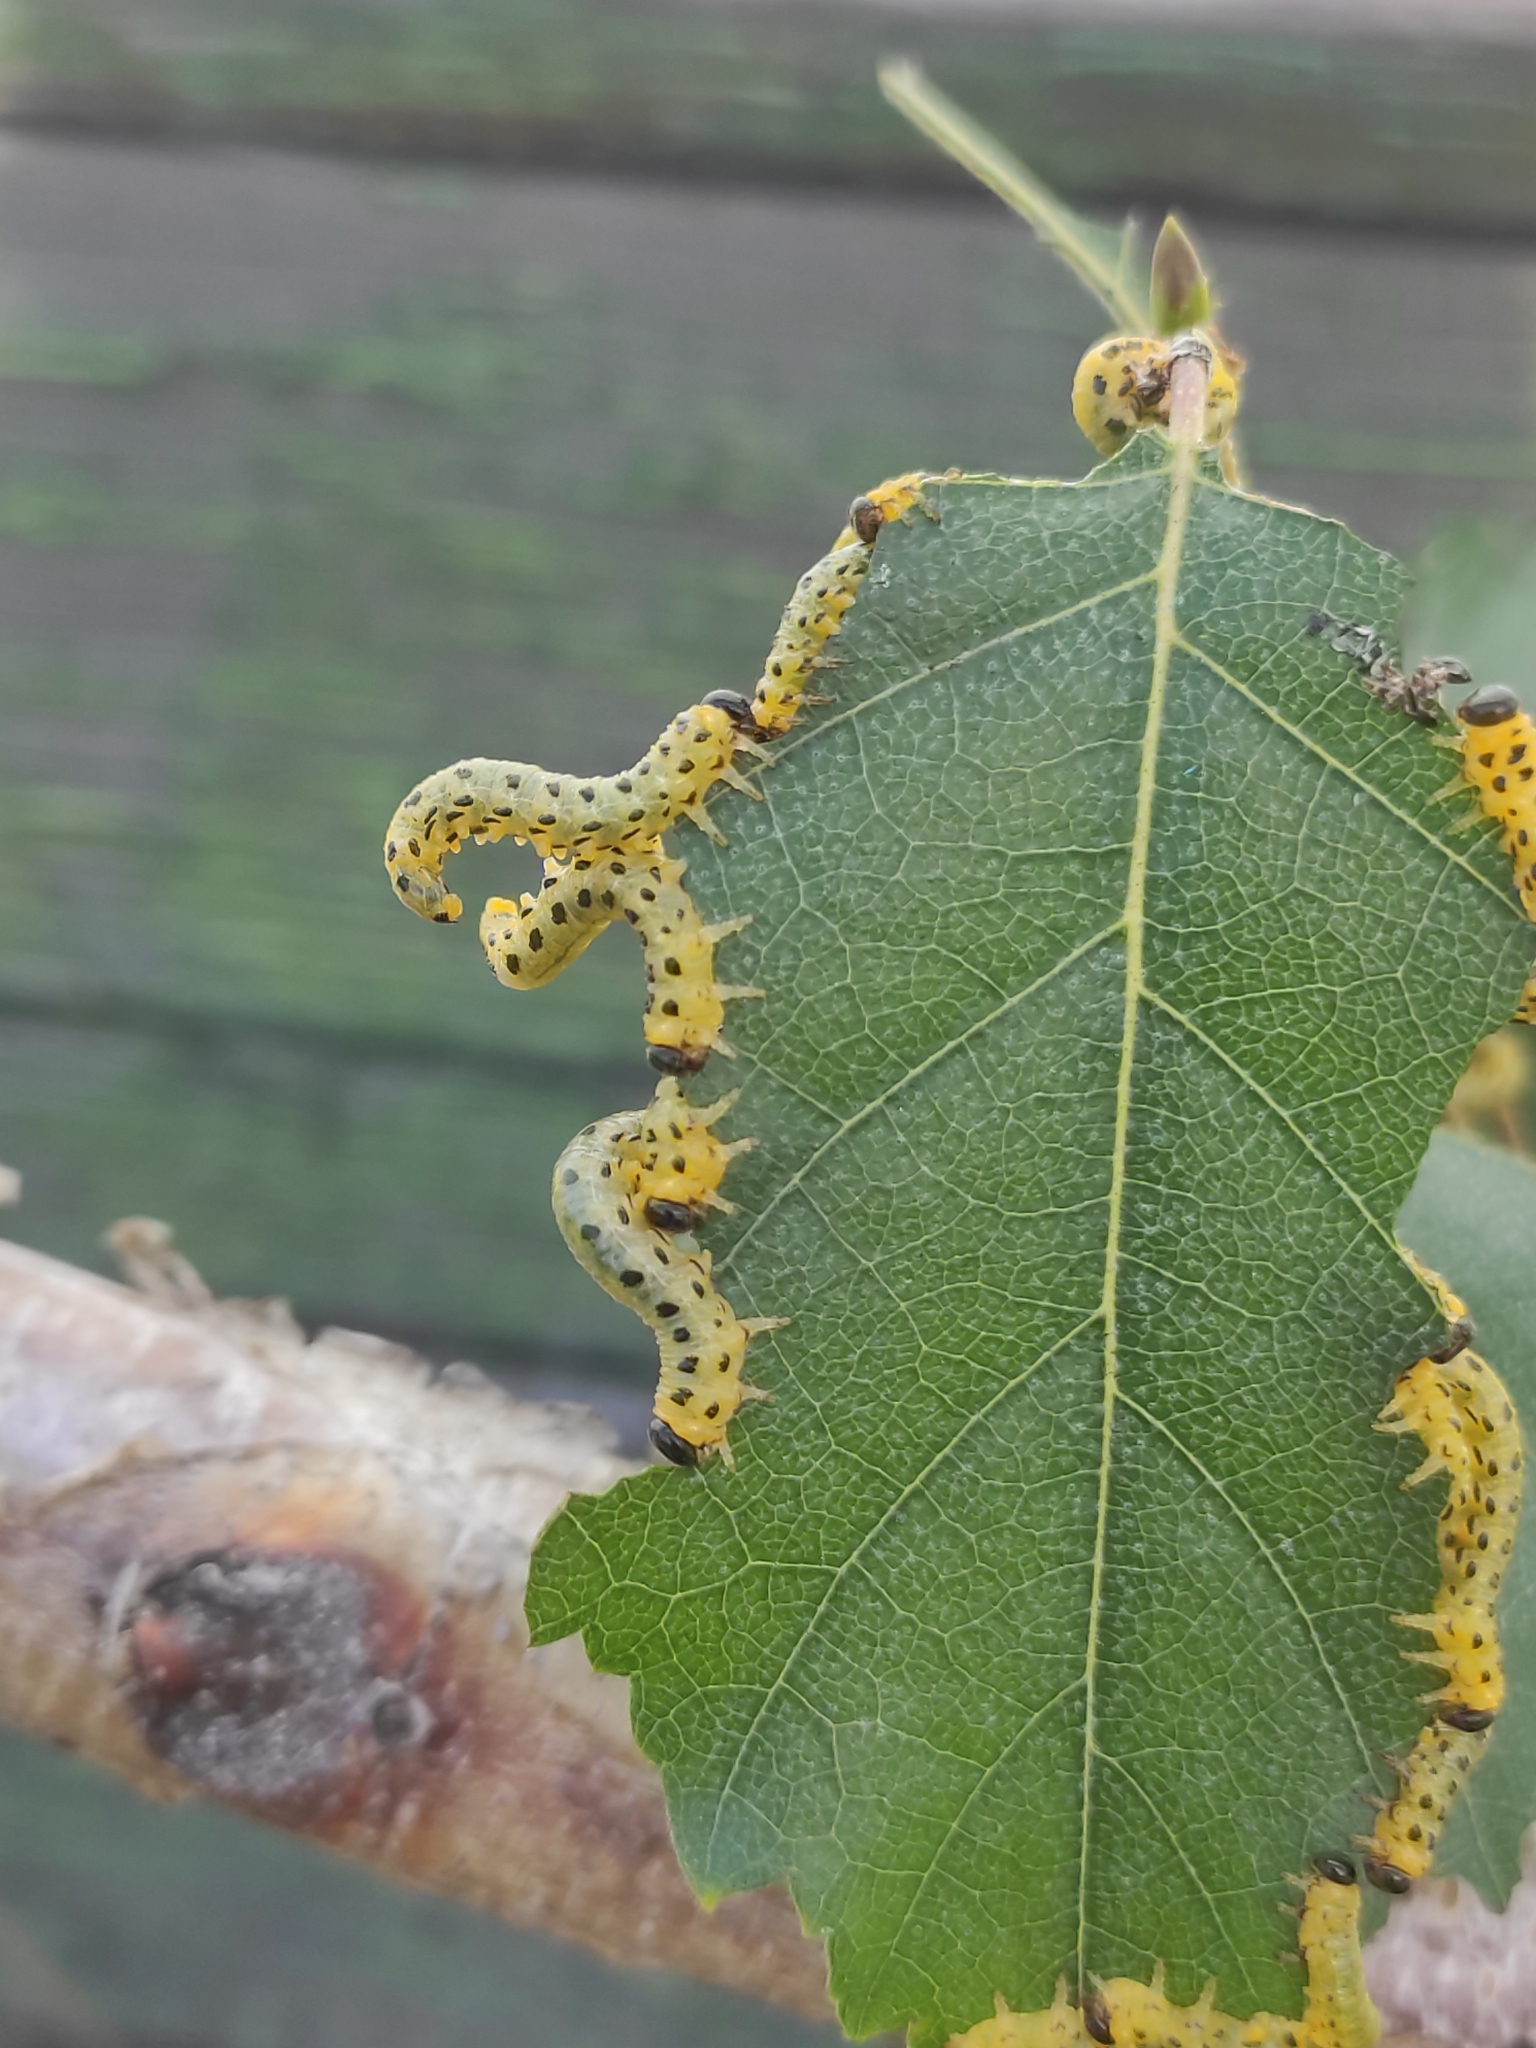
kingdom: Animalia
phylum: Arthropoda
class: Insecta
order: Hymenoptera
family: Tenthredinidae
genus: Craesus
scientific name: Craesus septentrionalis
